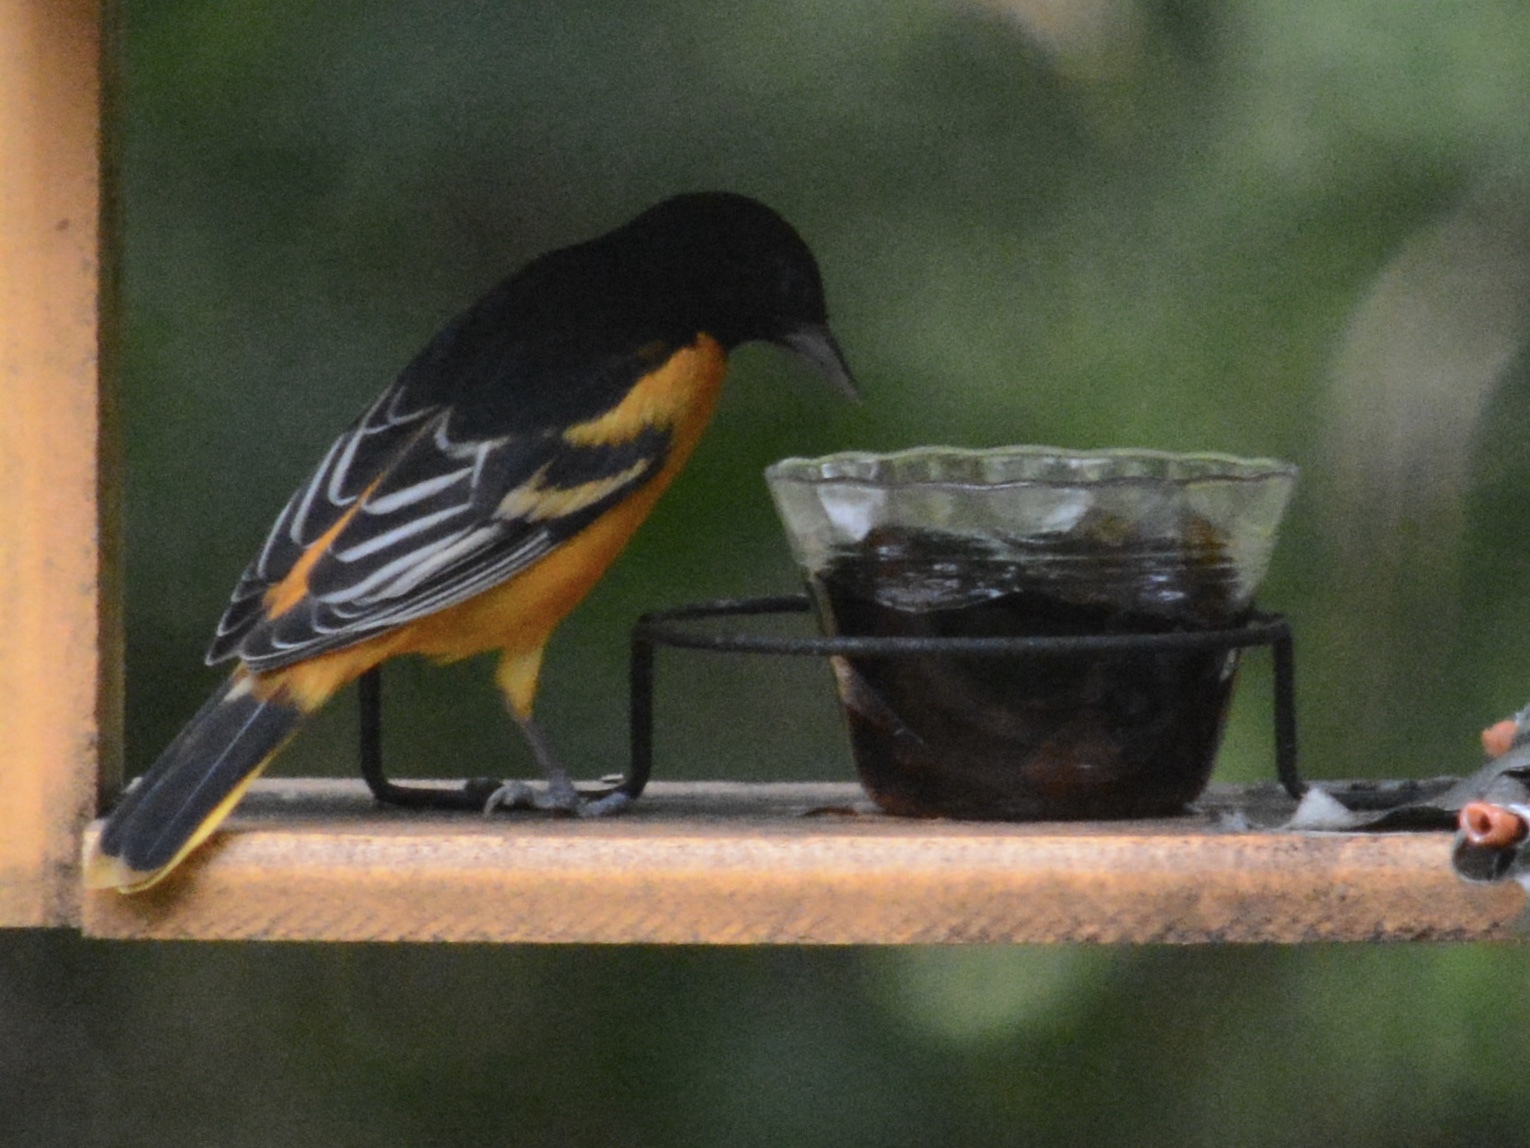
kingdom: Animalia
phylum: Chordata
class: Aves
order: Passeriformes
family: Icteridae
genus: Icterus
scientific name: Icterus galbula
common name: Baltimore oriole
